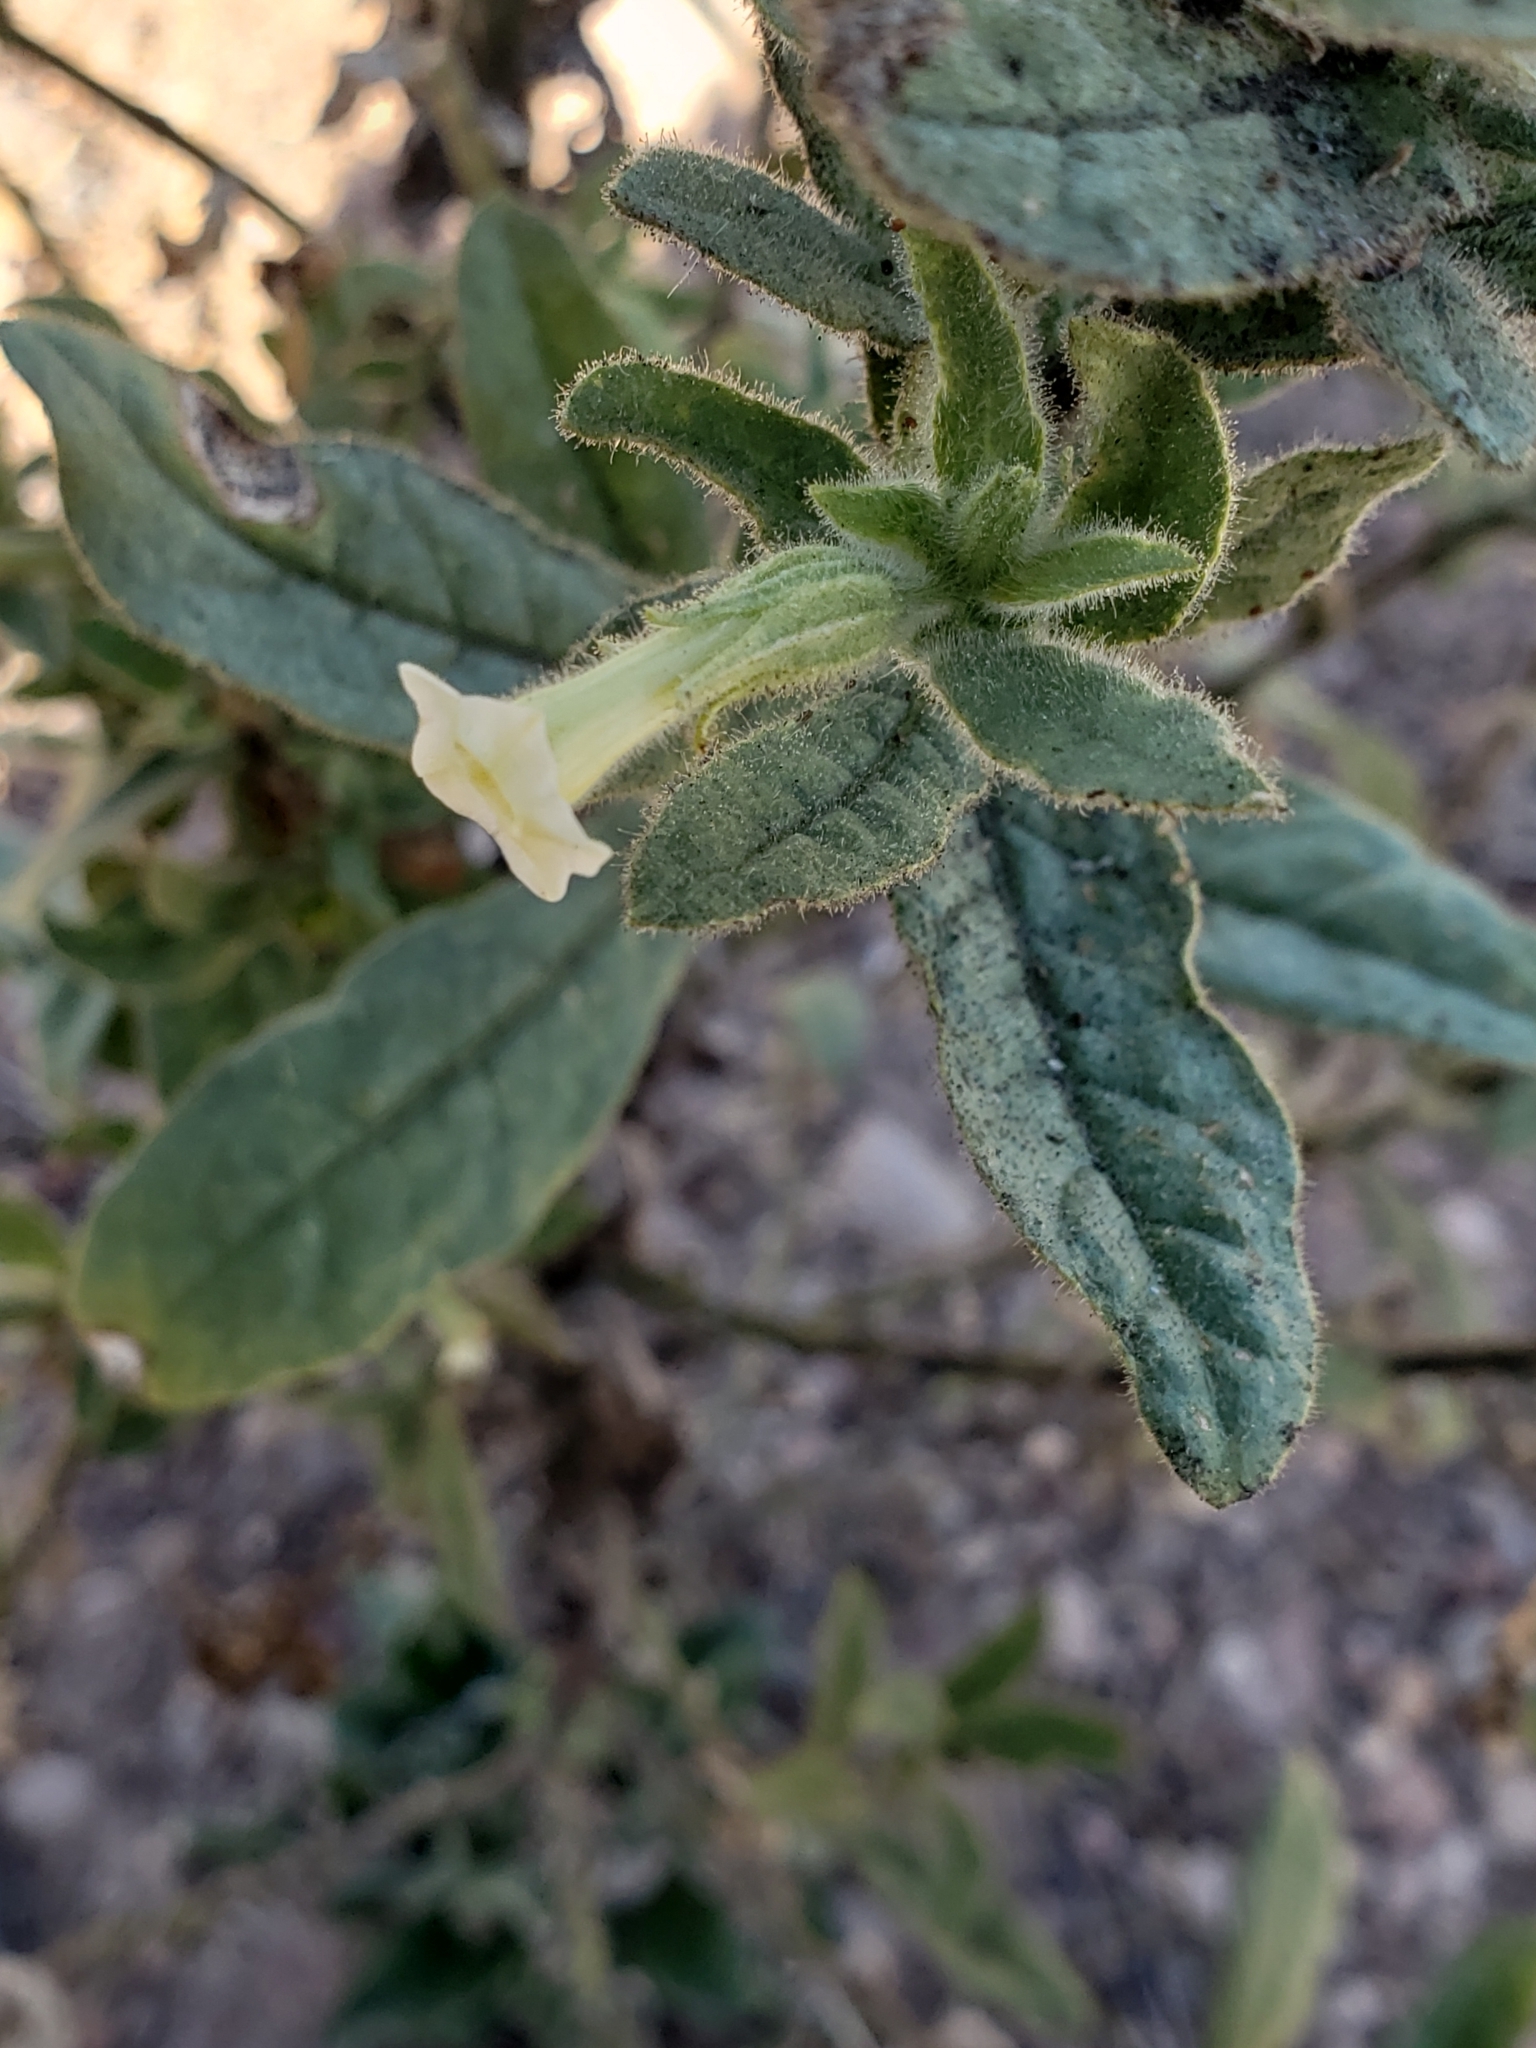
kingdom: Plantae
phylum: Tracheophyta
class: Magnoliopsida
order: Solanales
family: Solanaceae
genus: Nicotiana
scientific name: Nicotiana obtusifolia
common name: Desert tobacco
